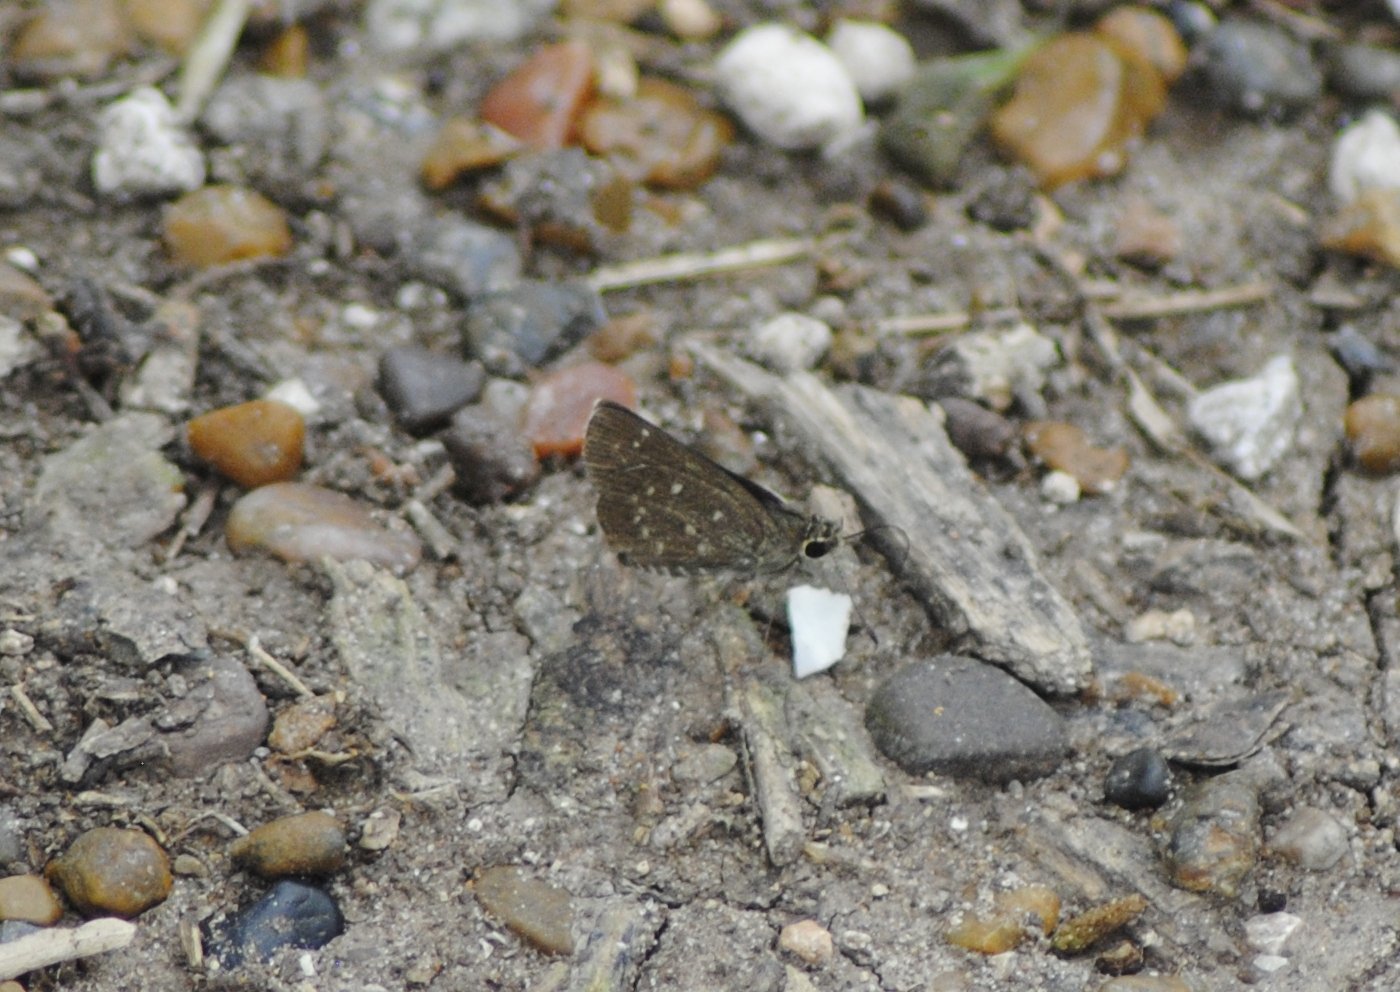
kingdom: Animalia
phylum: Arthropoda
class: Insecta
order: Lepidoptera
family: Hesperiidae
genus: Mastor
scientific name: Mastor celia
